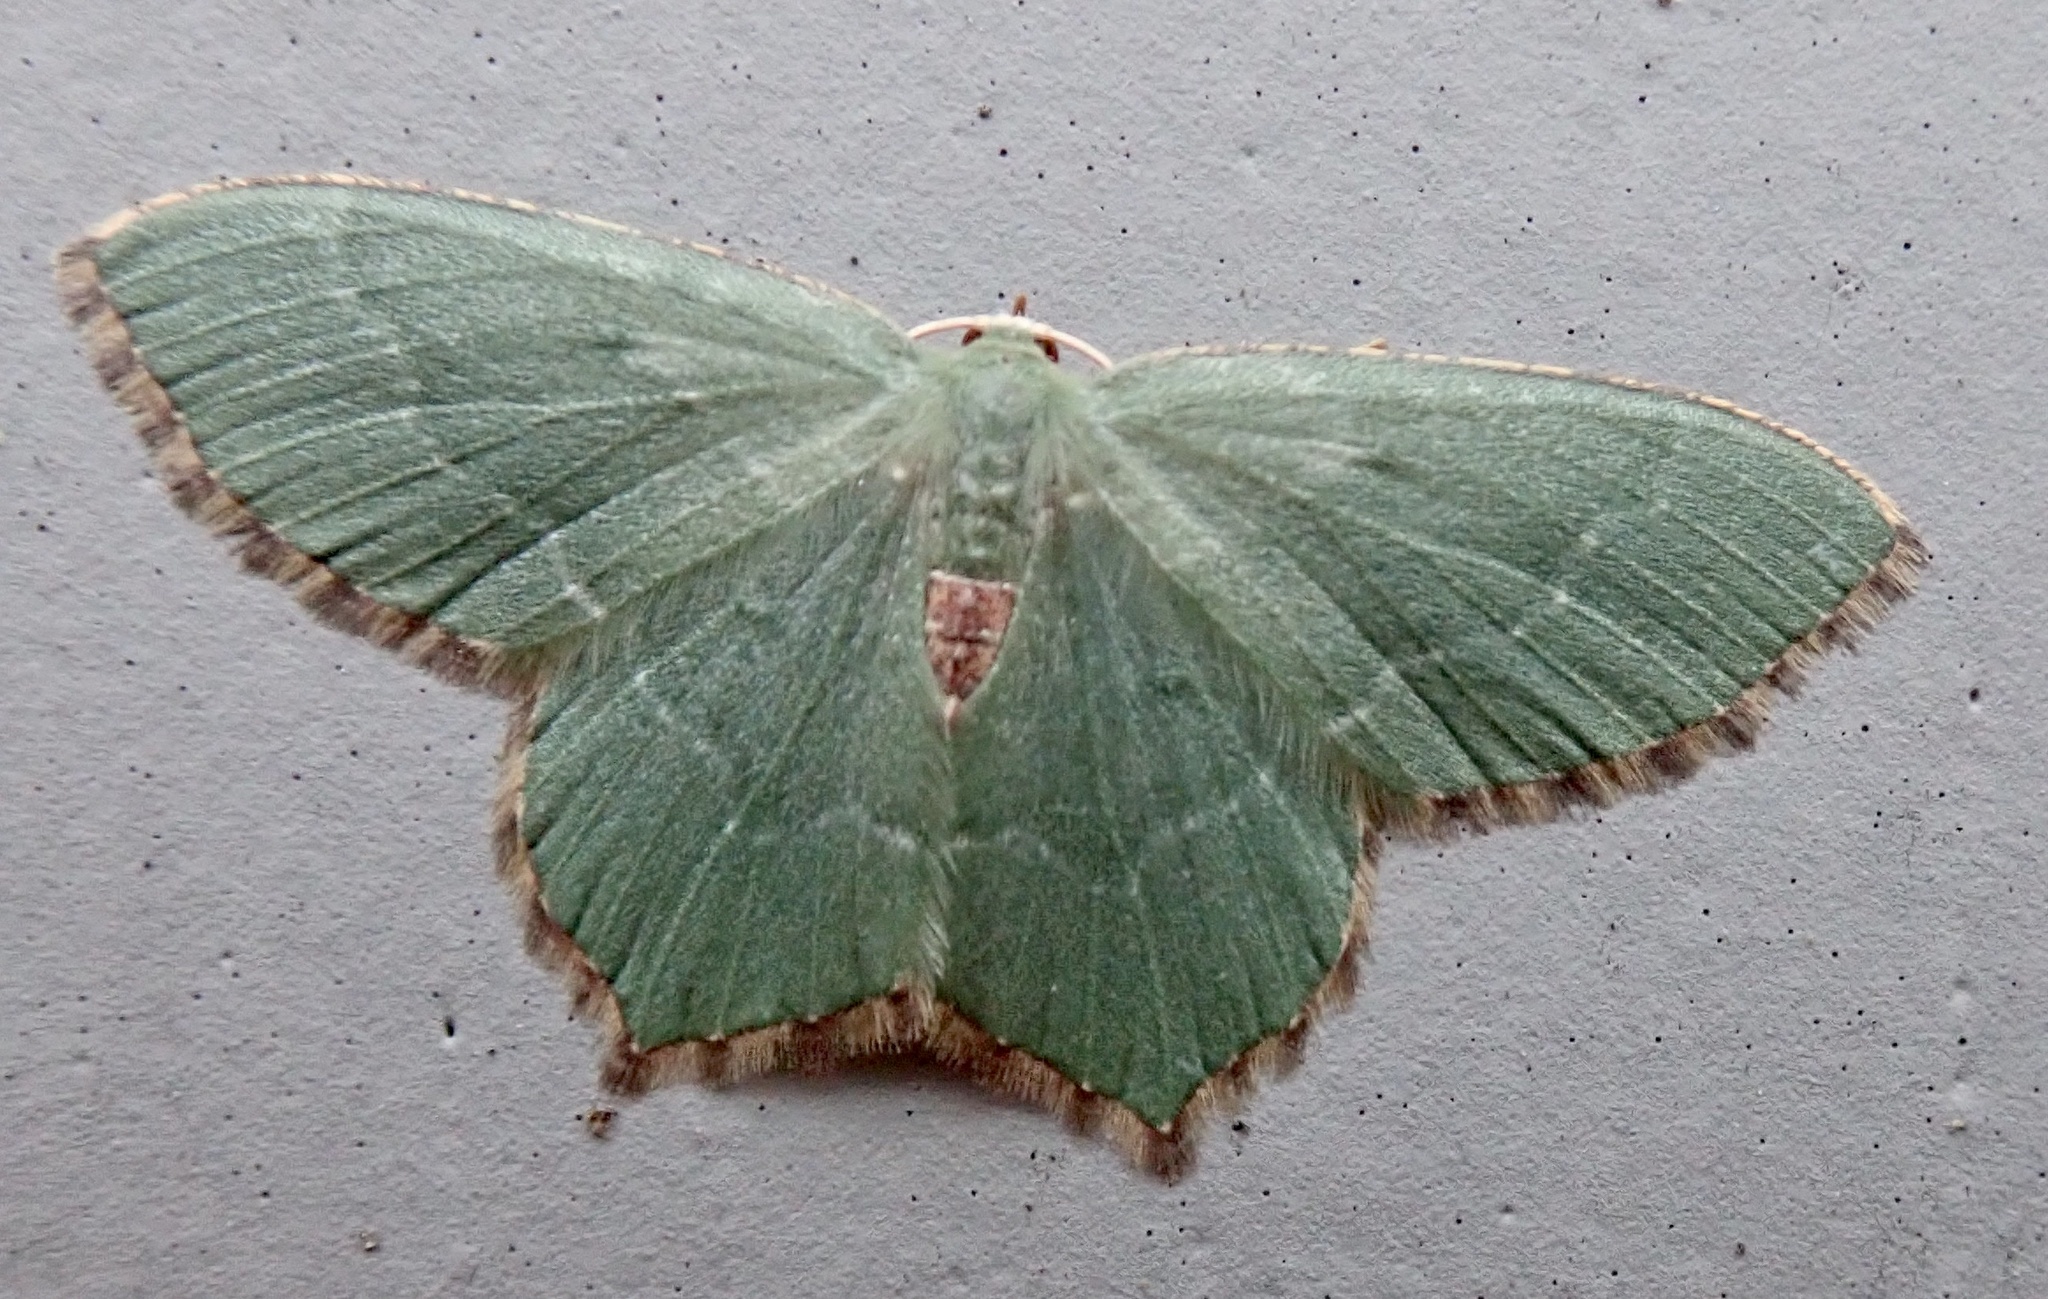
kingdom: Animalia
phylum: Arthropoda
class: Insecta
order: Lepidoptera
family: Geometridae
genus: Hemithea
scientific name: Hemithea aestivaria
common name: Common emerald
